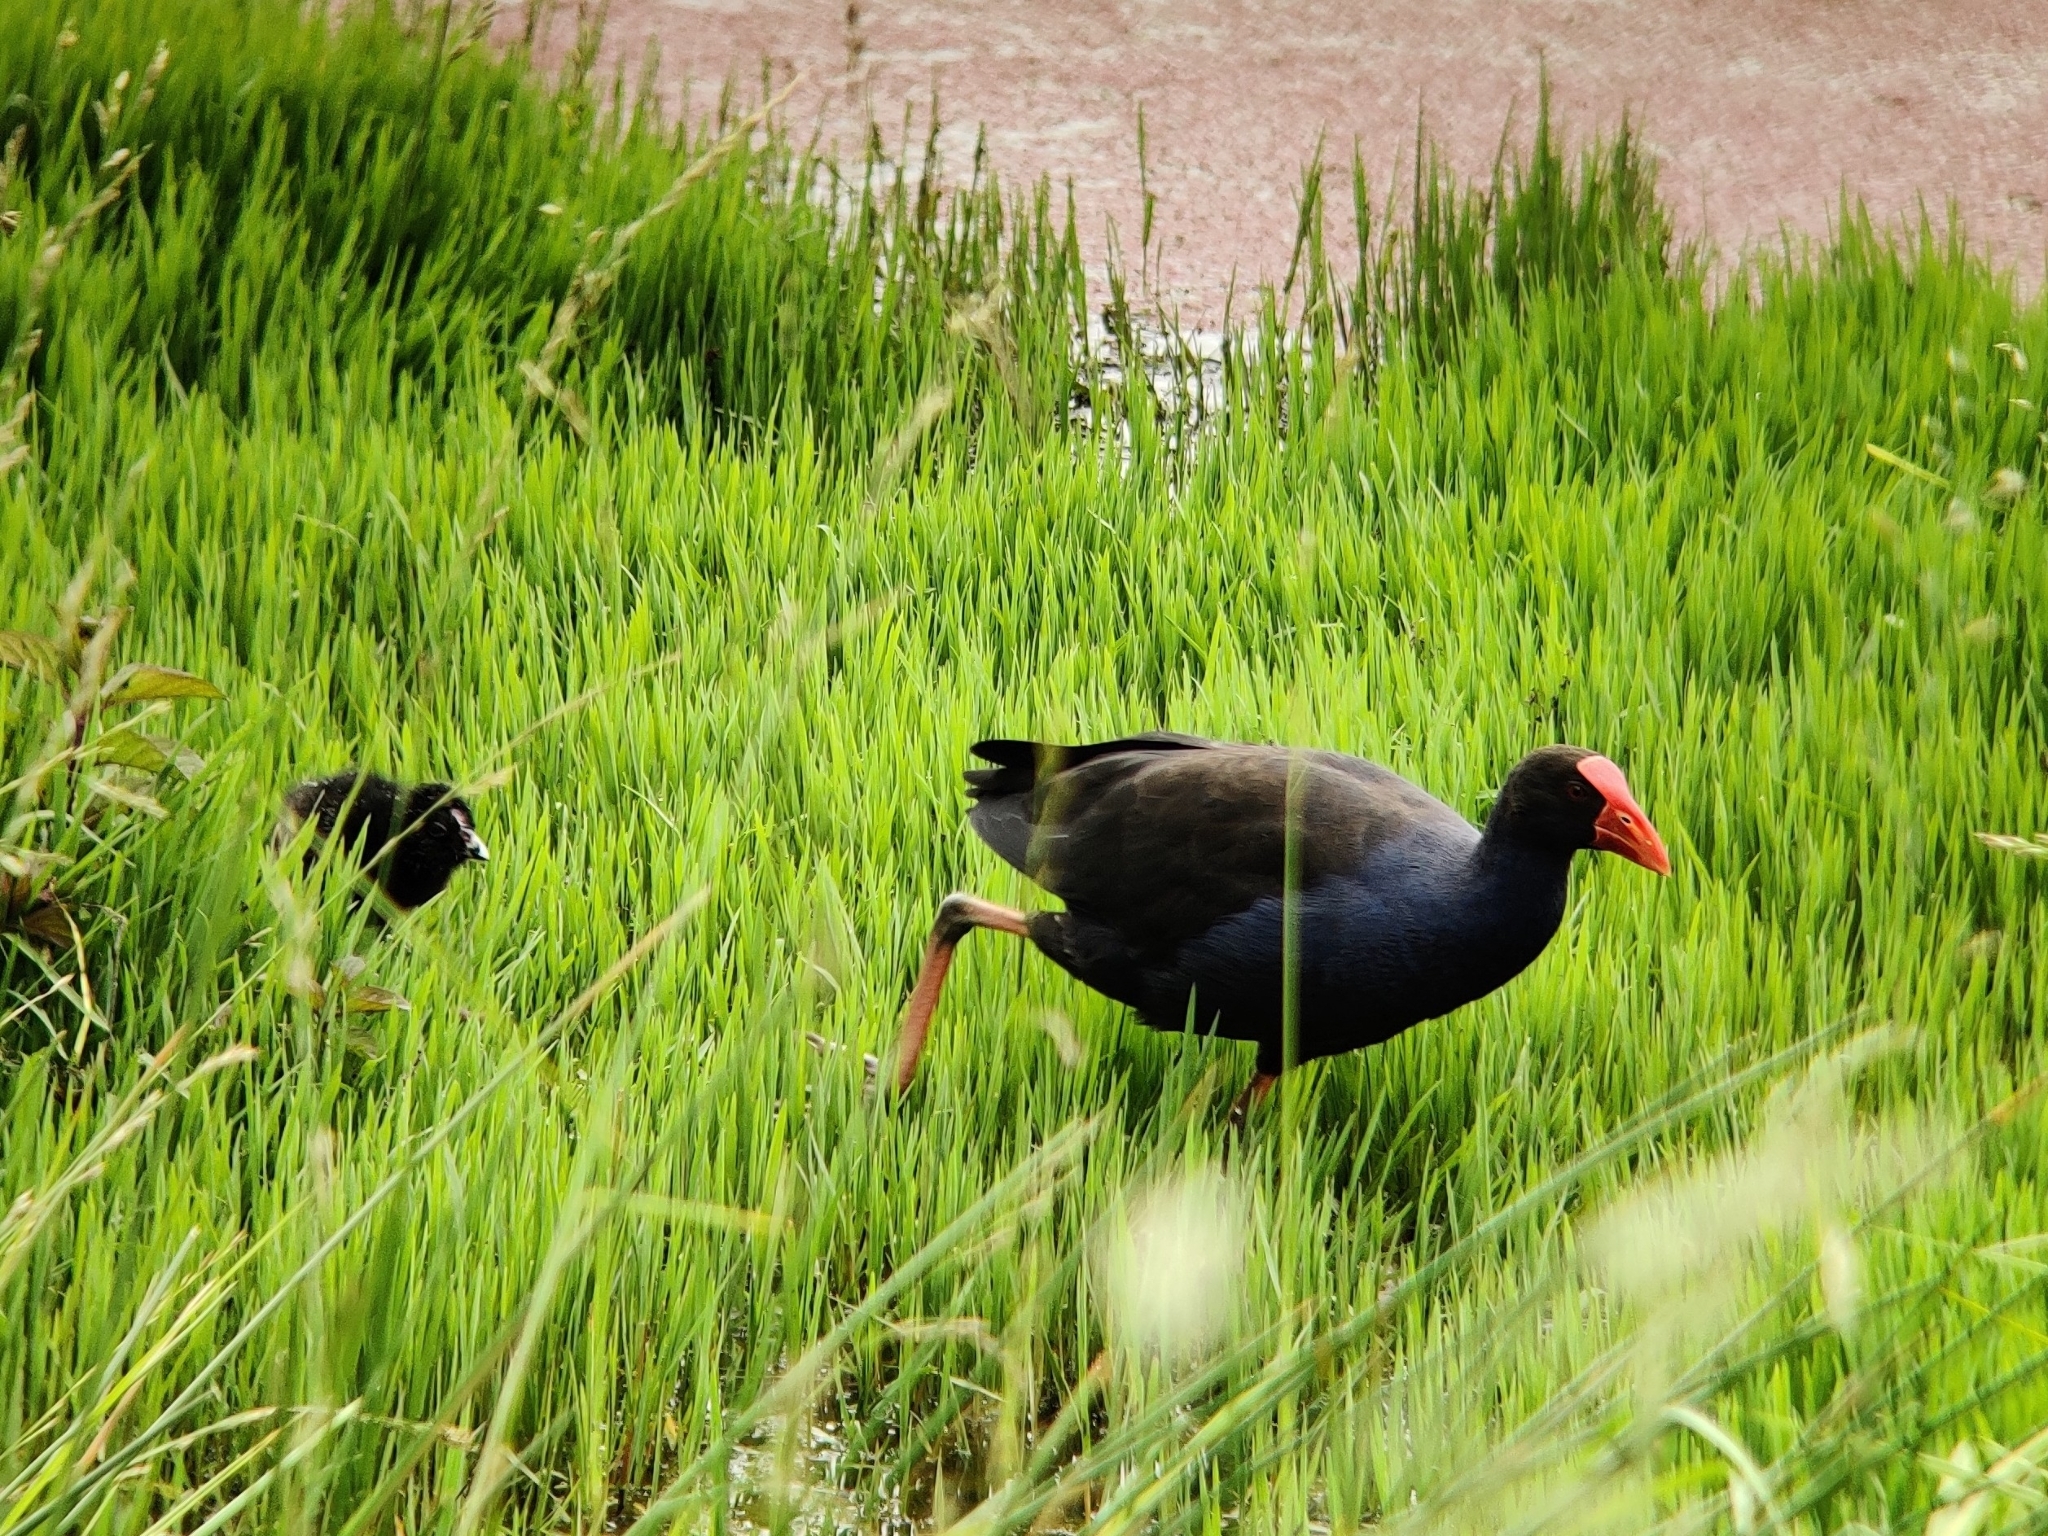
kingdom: Animalia
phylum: Chordata
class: Aves
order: Gruiformes
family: Rallidae
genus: Porphyrio
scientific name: Porphyrio melanotus
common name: Australasian swamphen
